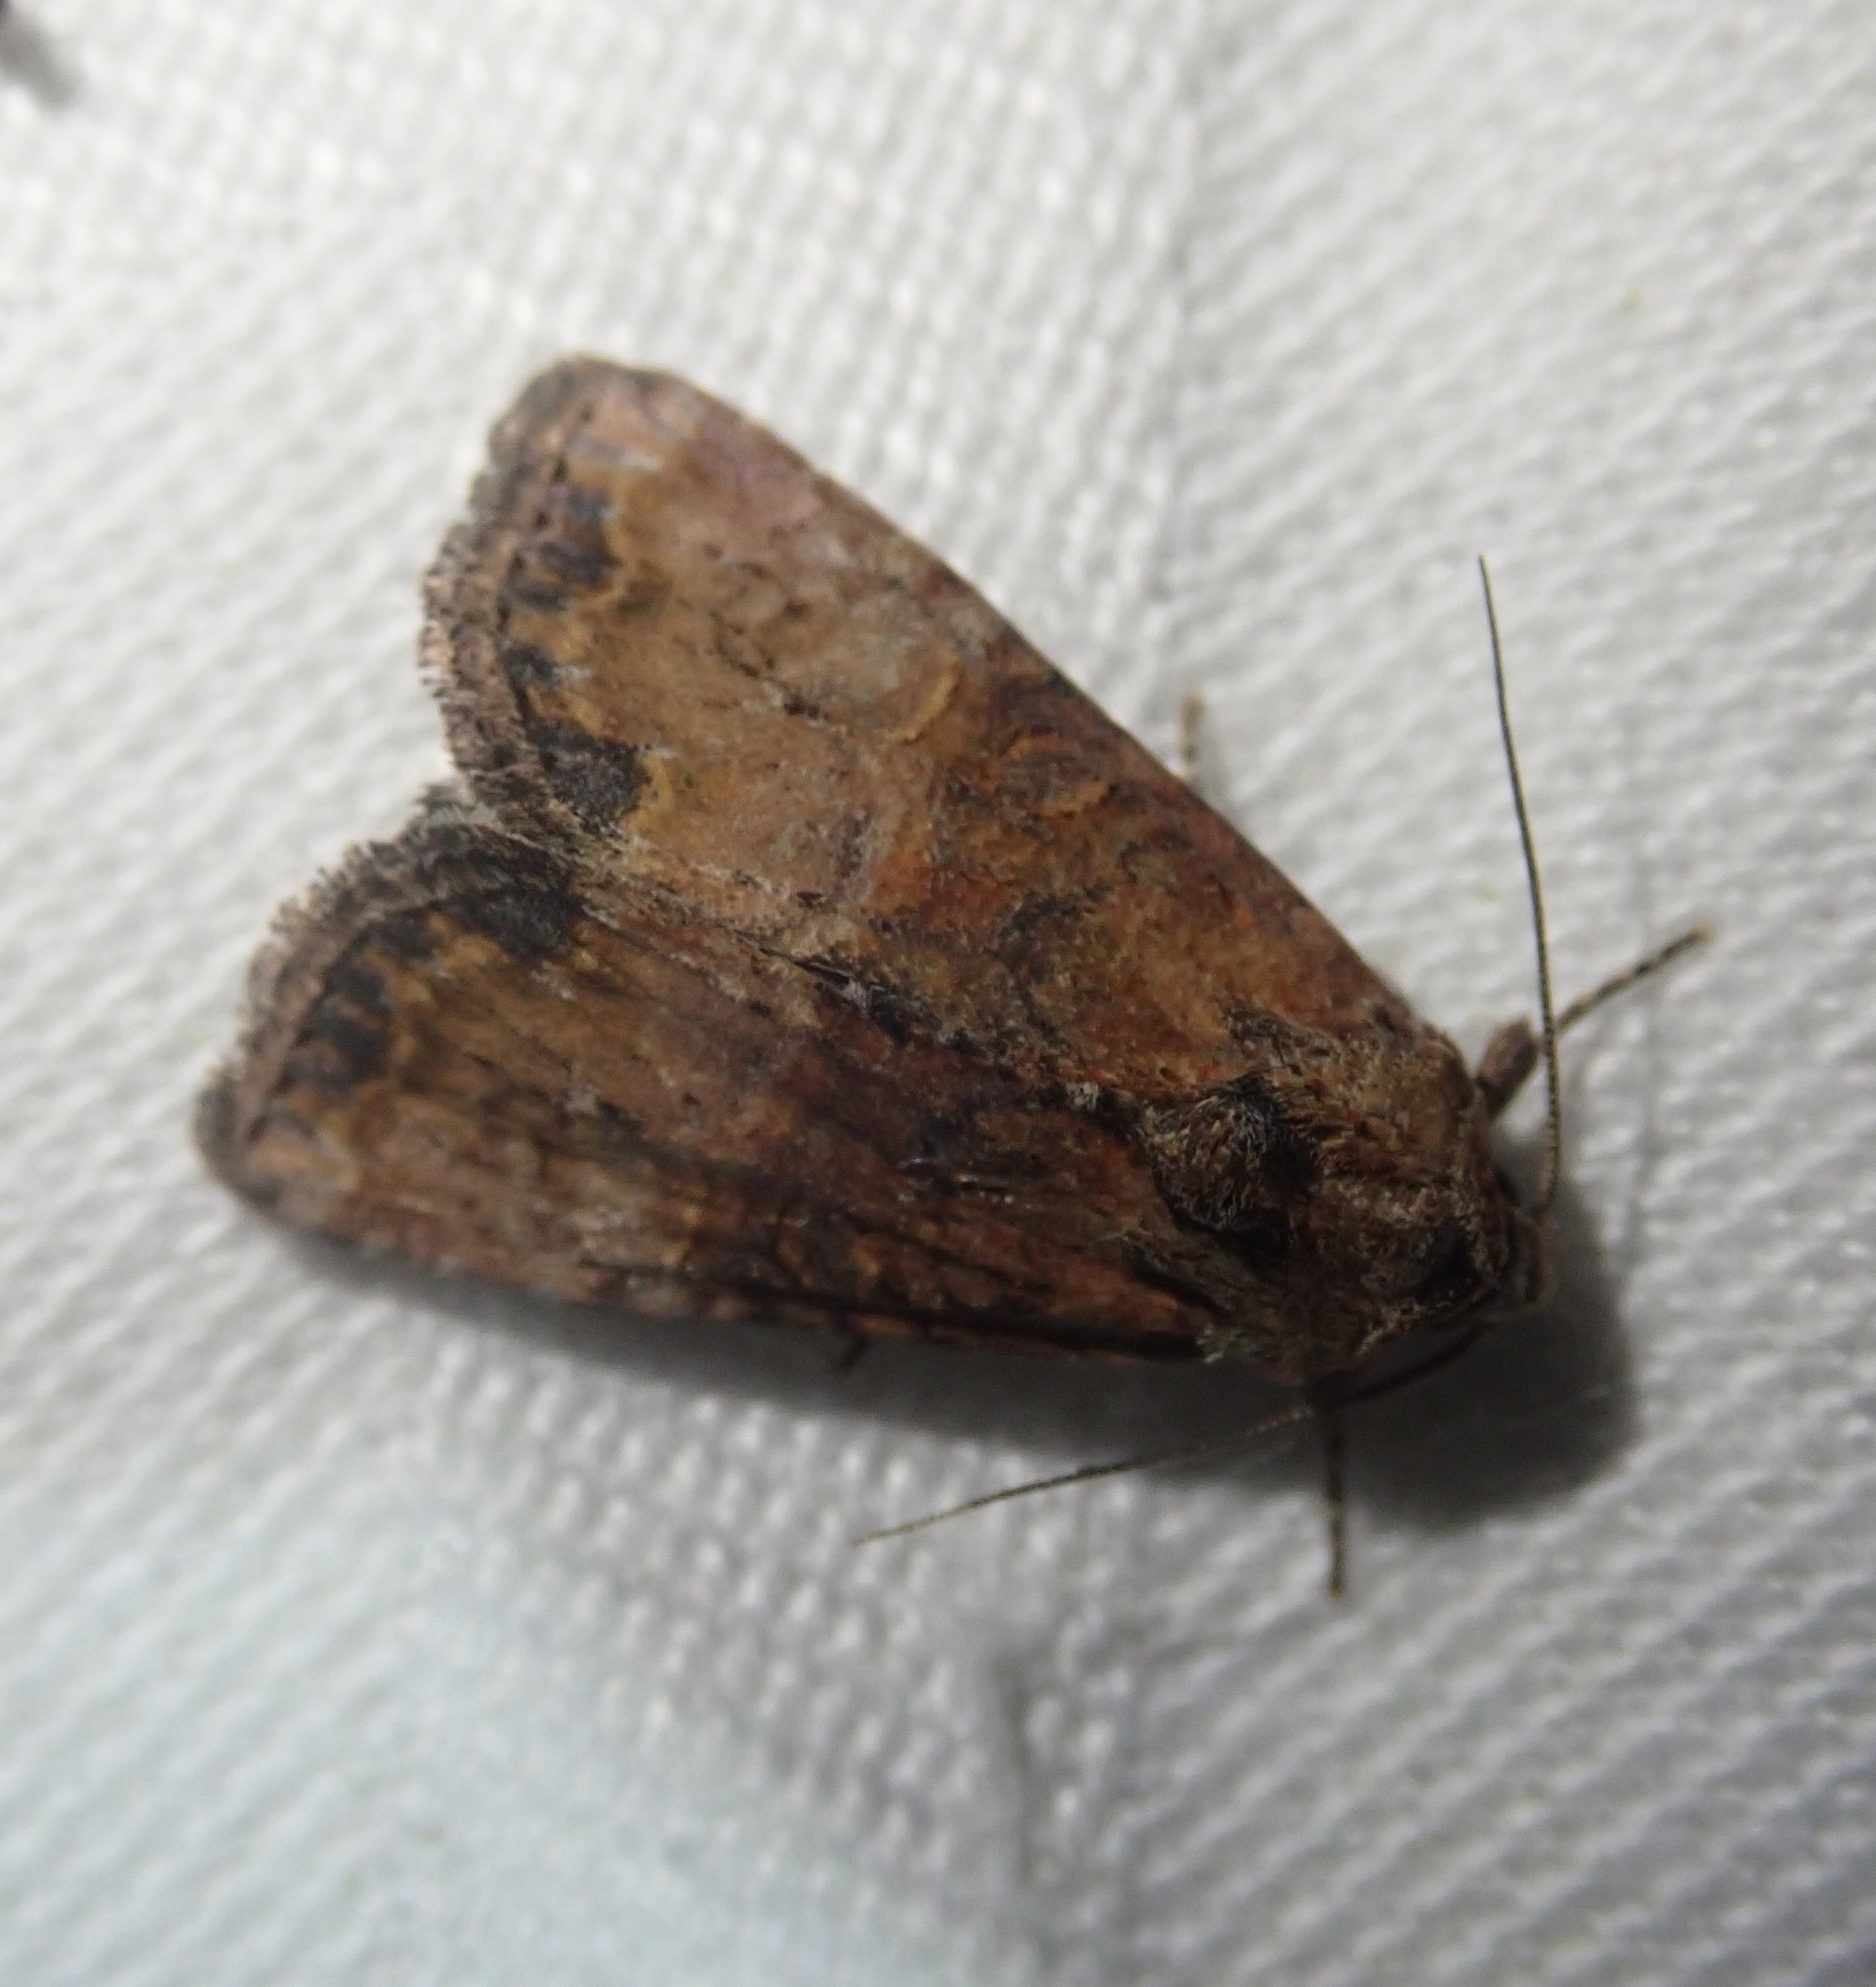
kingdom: Animalia
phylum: Arthropoda
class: Insecta
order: Lepidoptera
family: Noctuidae
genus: Mesoligia
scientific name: Mesoligia furuncula
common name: Cloaked minor
